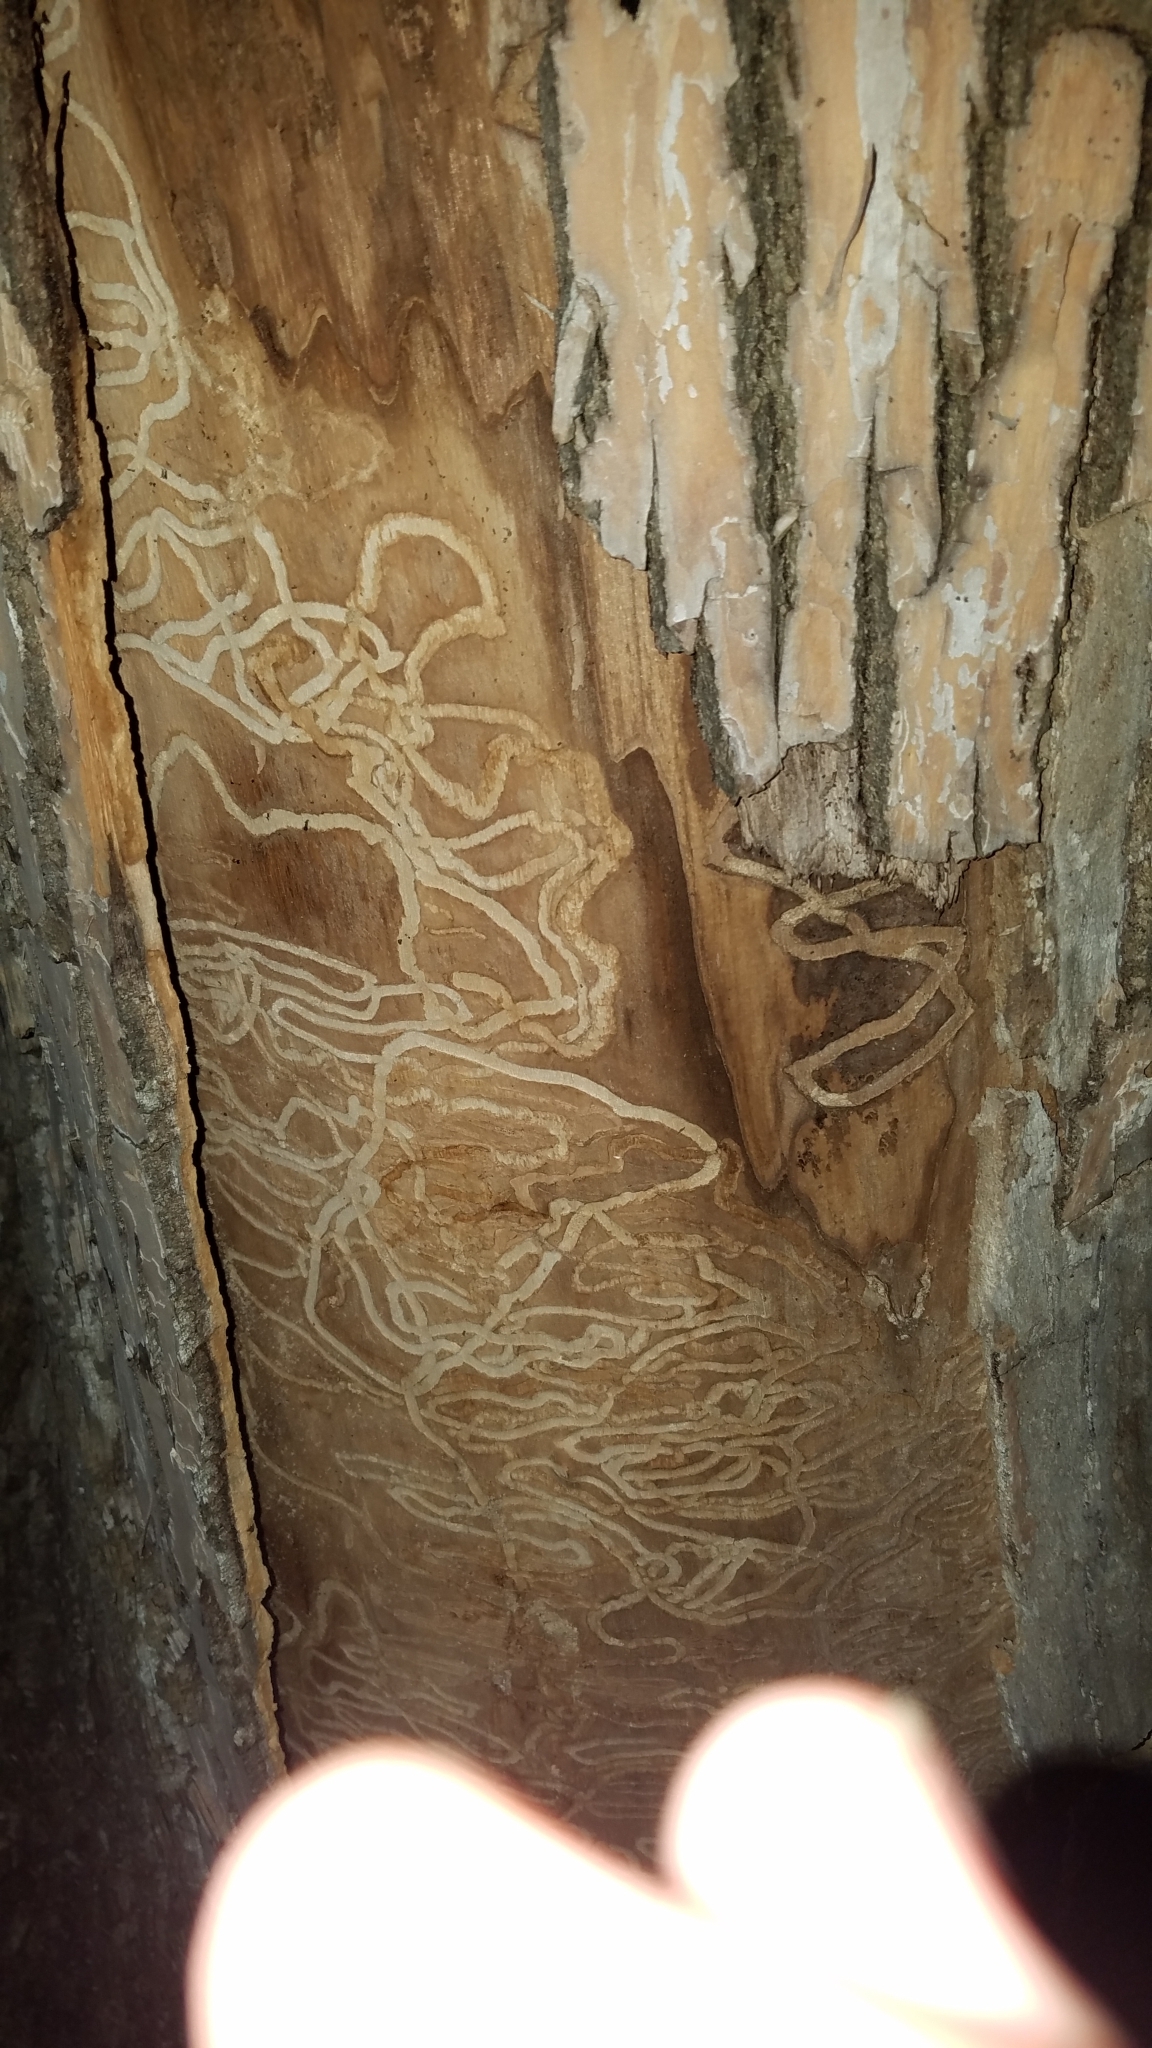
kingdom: Animalia
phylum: Arthropoda
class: Insecta
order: Coleoptera
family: Buprestidae
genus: Agrilus
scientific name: Agrilus planipennis
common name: Emerald ash borer
